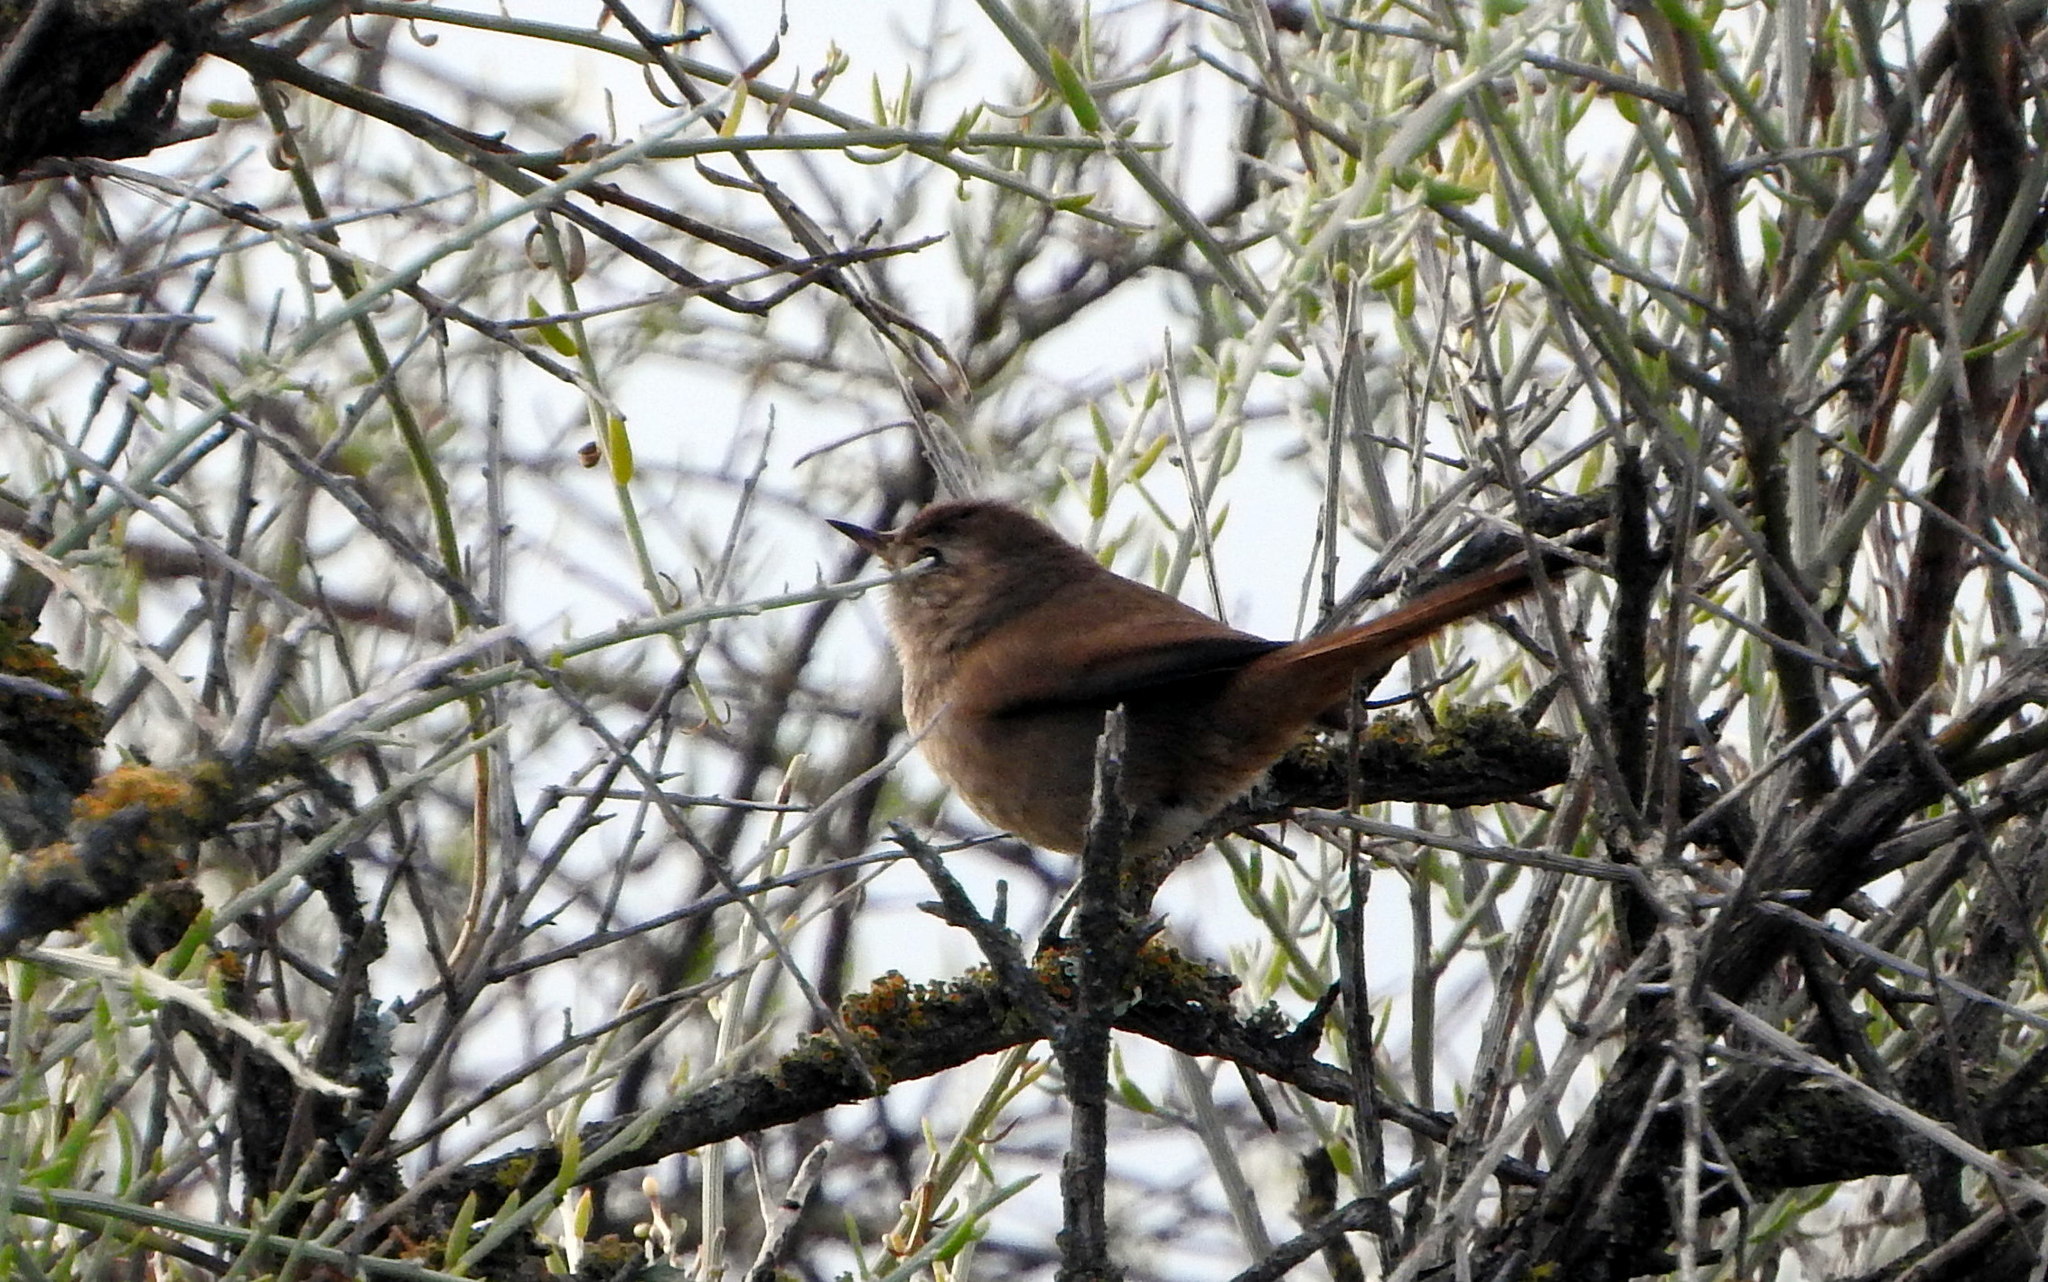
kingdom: Animalia
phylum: Chordata
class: Aves
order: Passeriformes
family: Furnariidae
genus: Asthenes
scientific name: Asthenes pyrrholeuca
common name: Sharp-billed canastero
